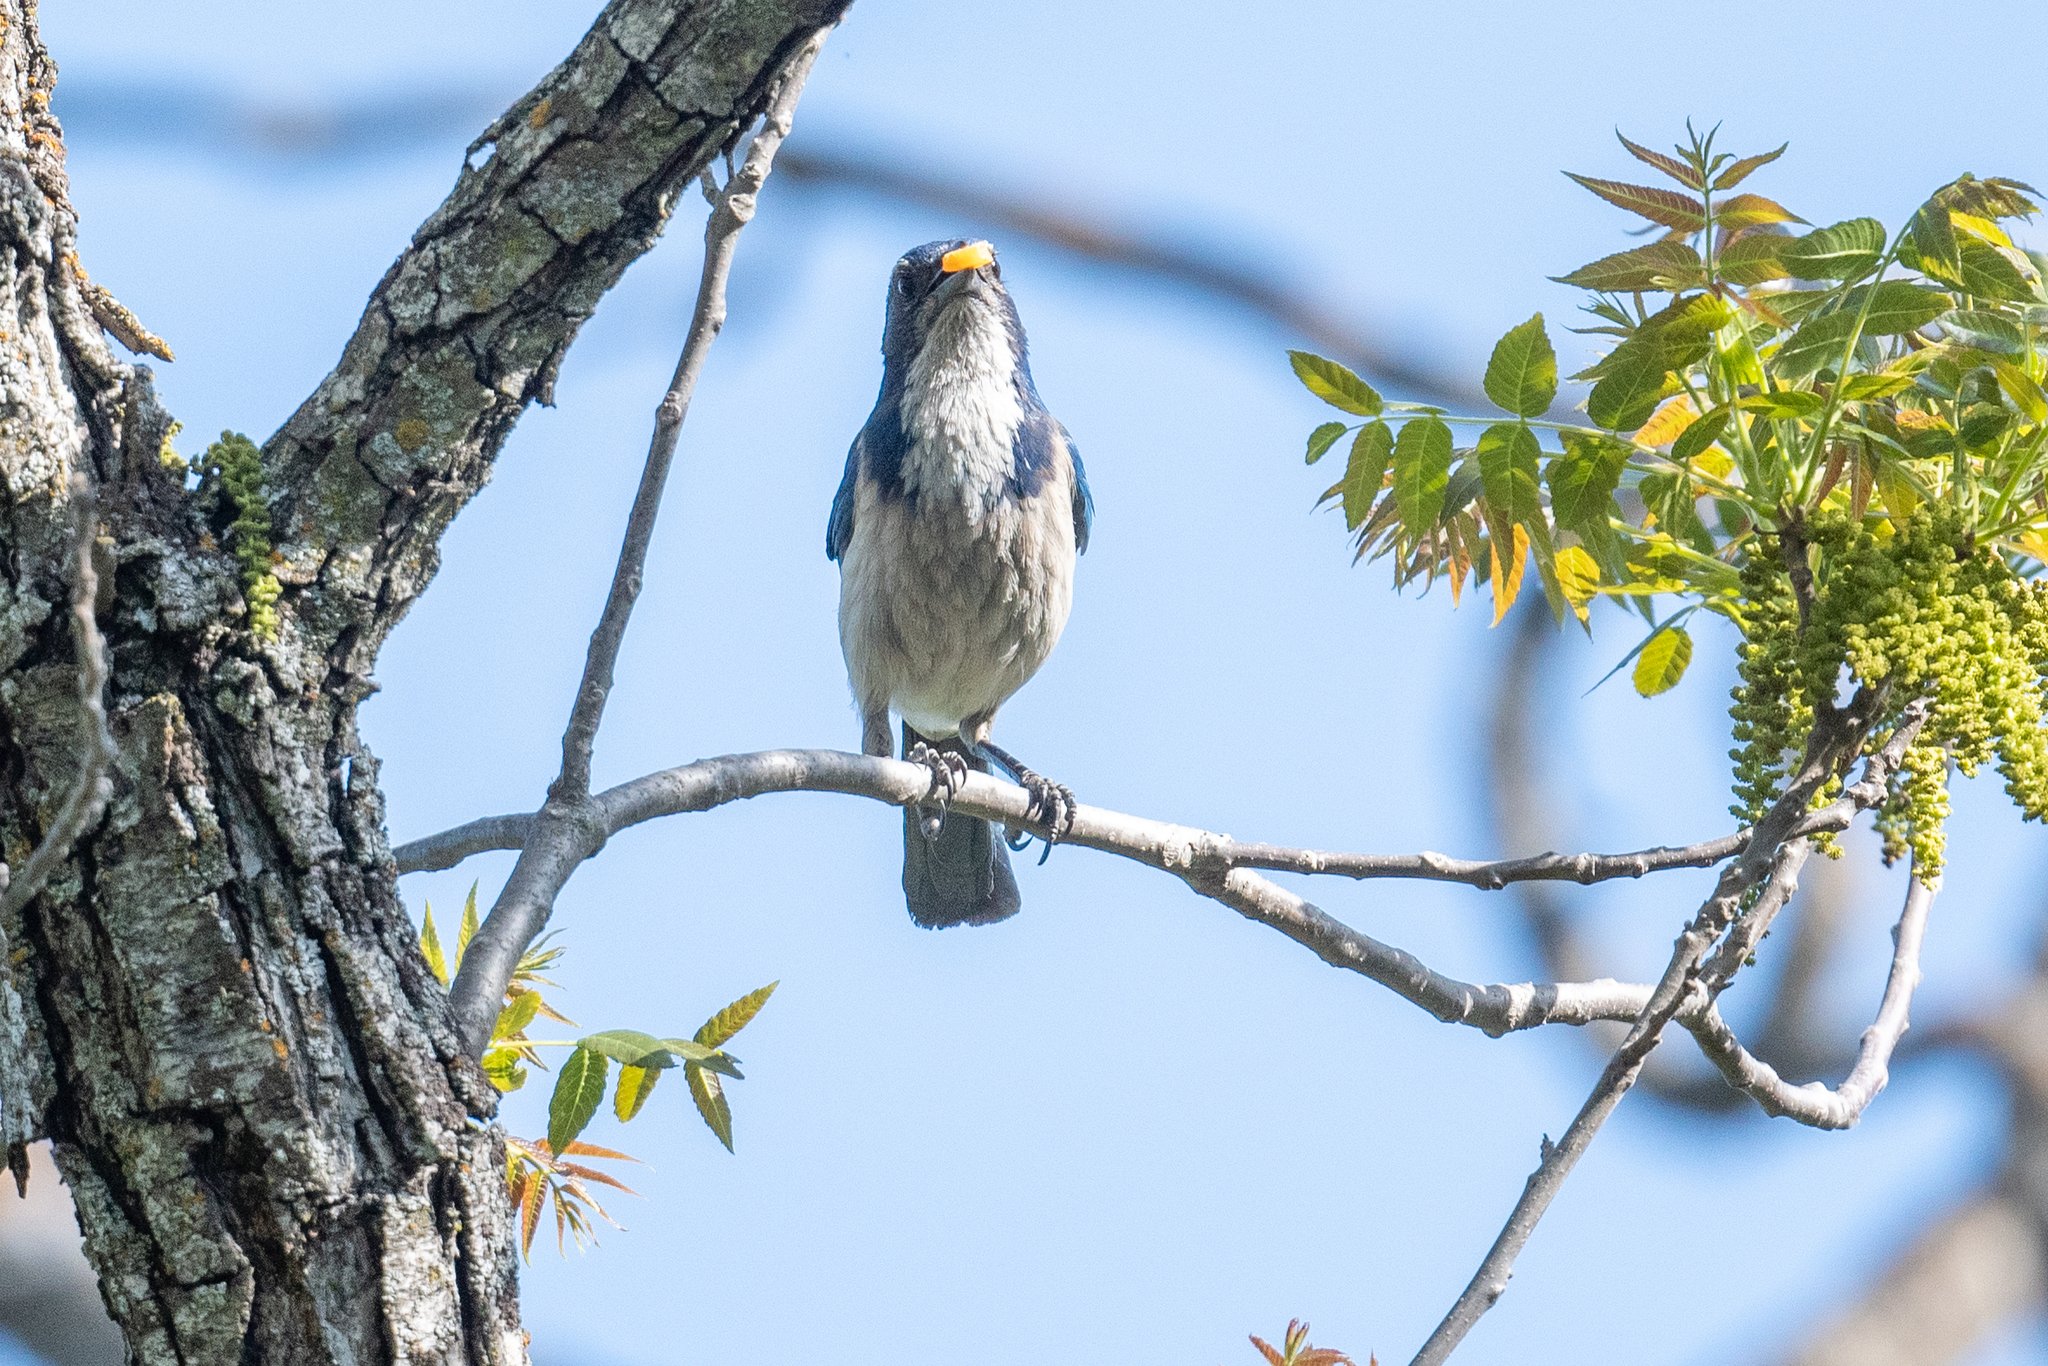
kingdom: Animalia
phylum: Chordata
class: Aves
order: Passeriformes
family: Corvidae
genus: Aphelocoma
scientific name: Aphelocoma californica
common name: California scrub-jay
